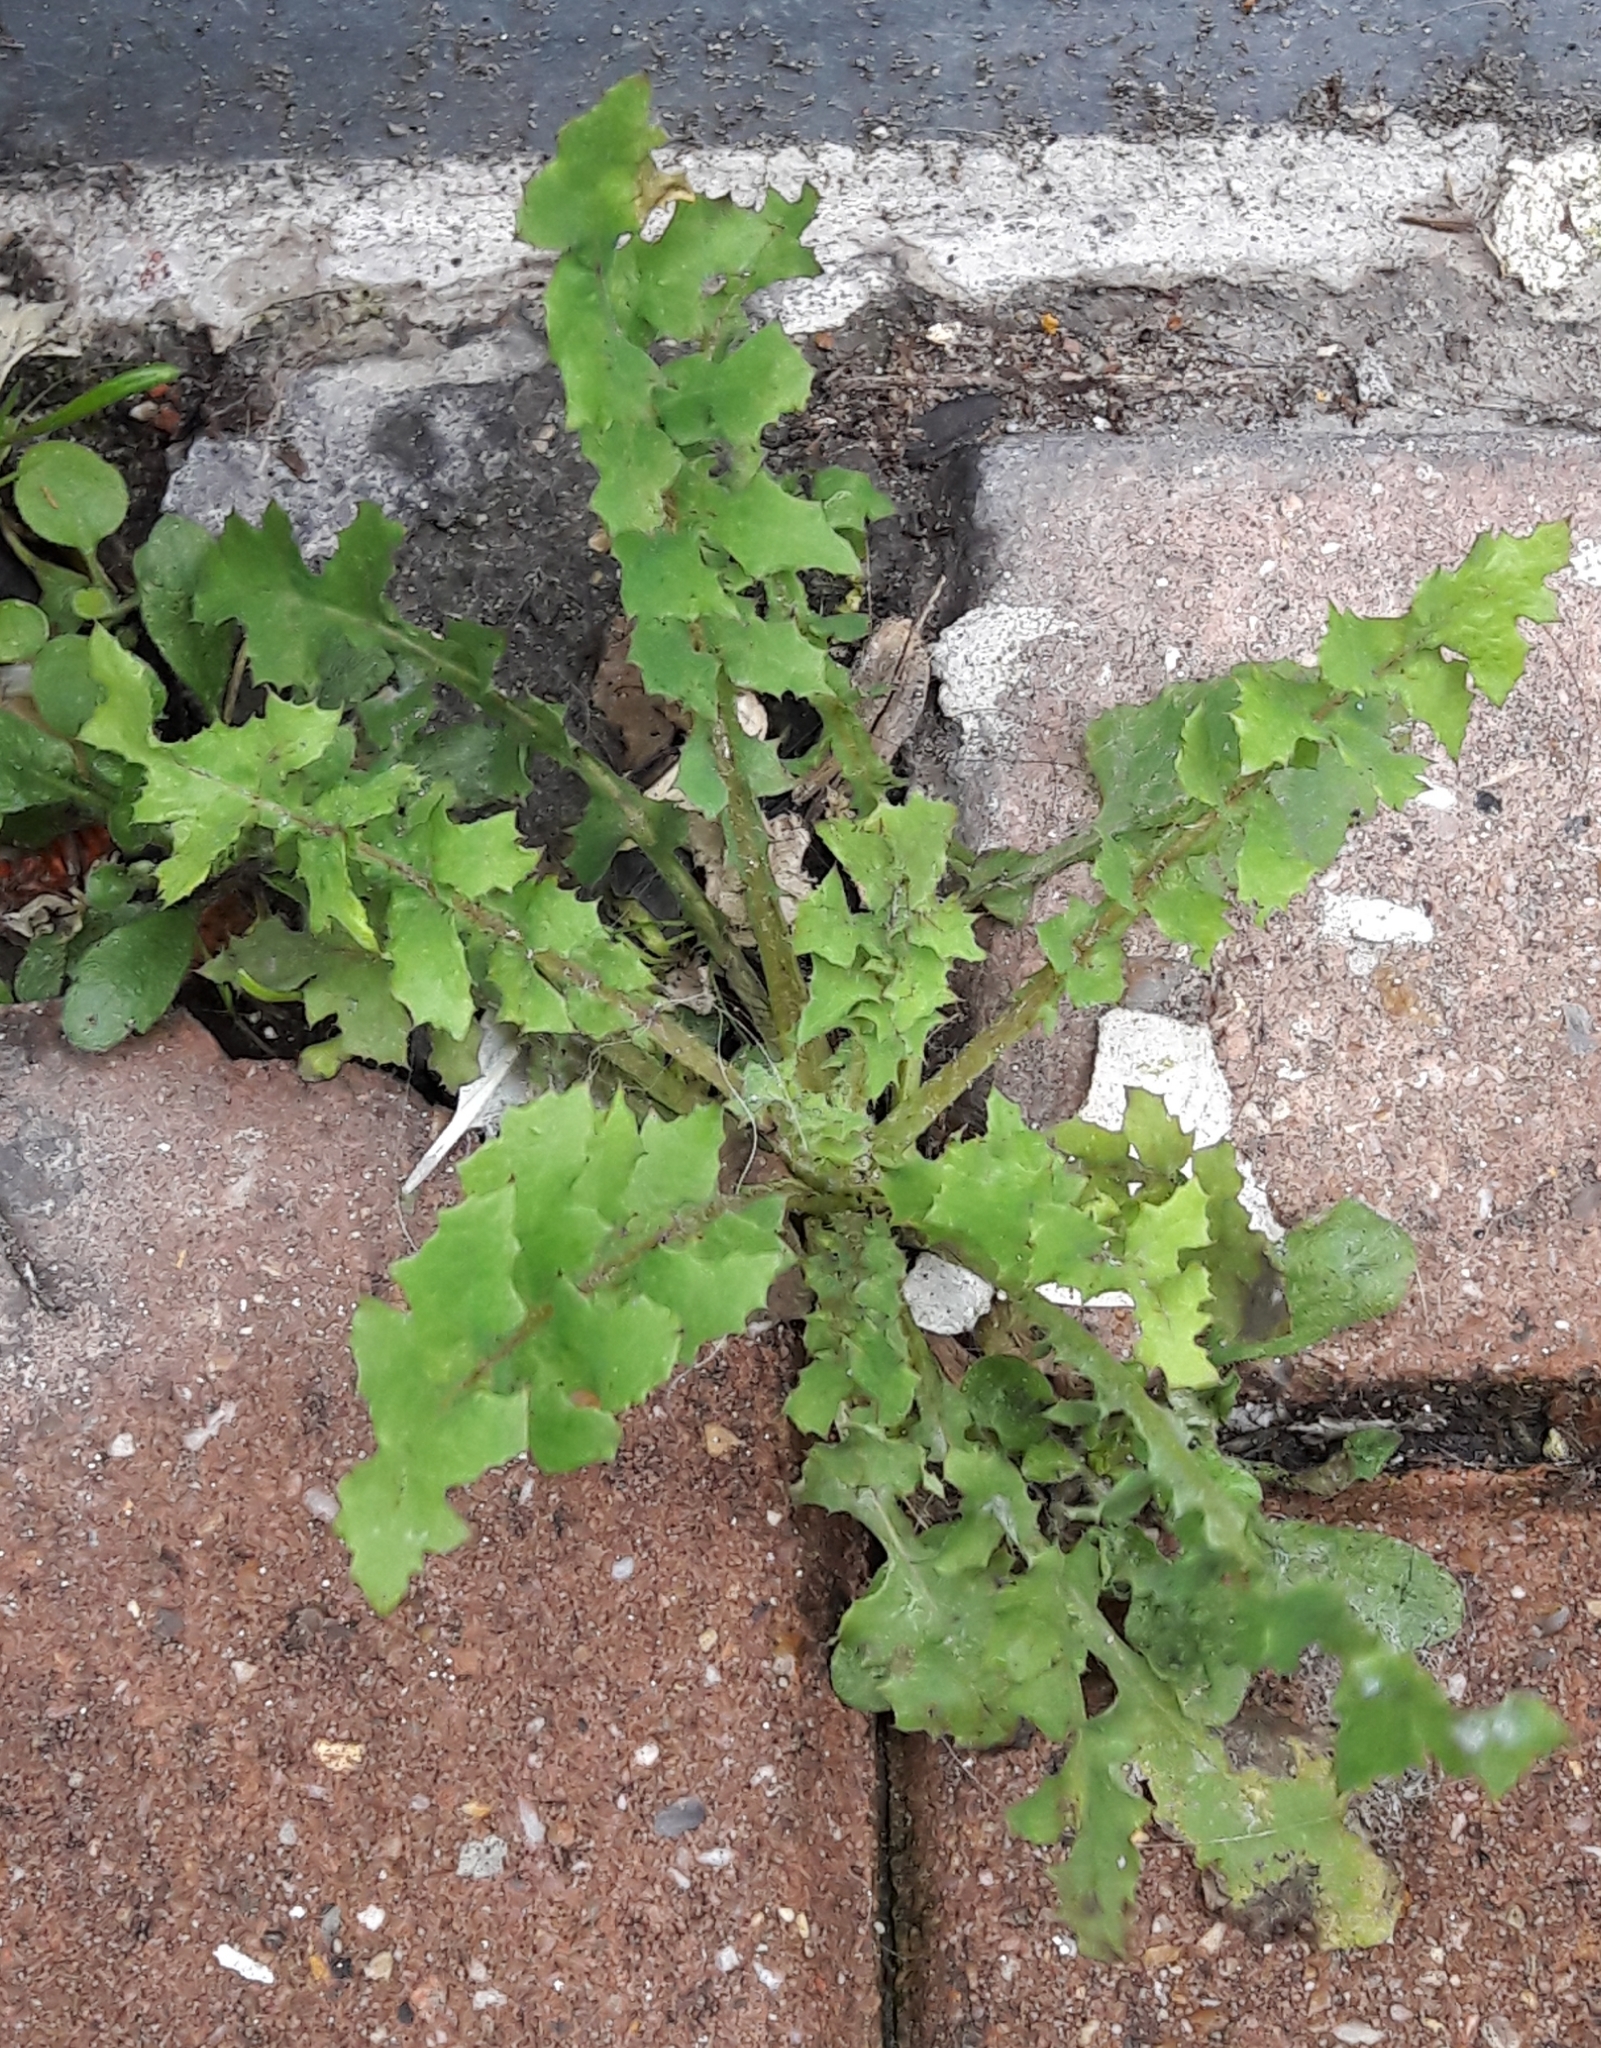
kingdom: Plantae
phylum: Tracheophyta
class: Magnoliopsida
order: Asterales
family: Asteraceae
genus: Sonchus
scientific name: Sonchus oleraceus
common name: Common sowthistle
